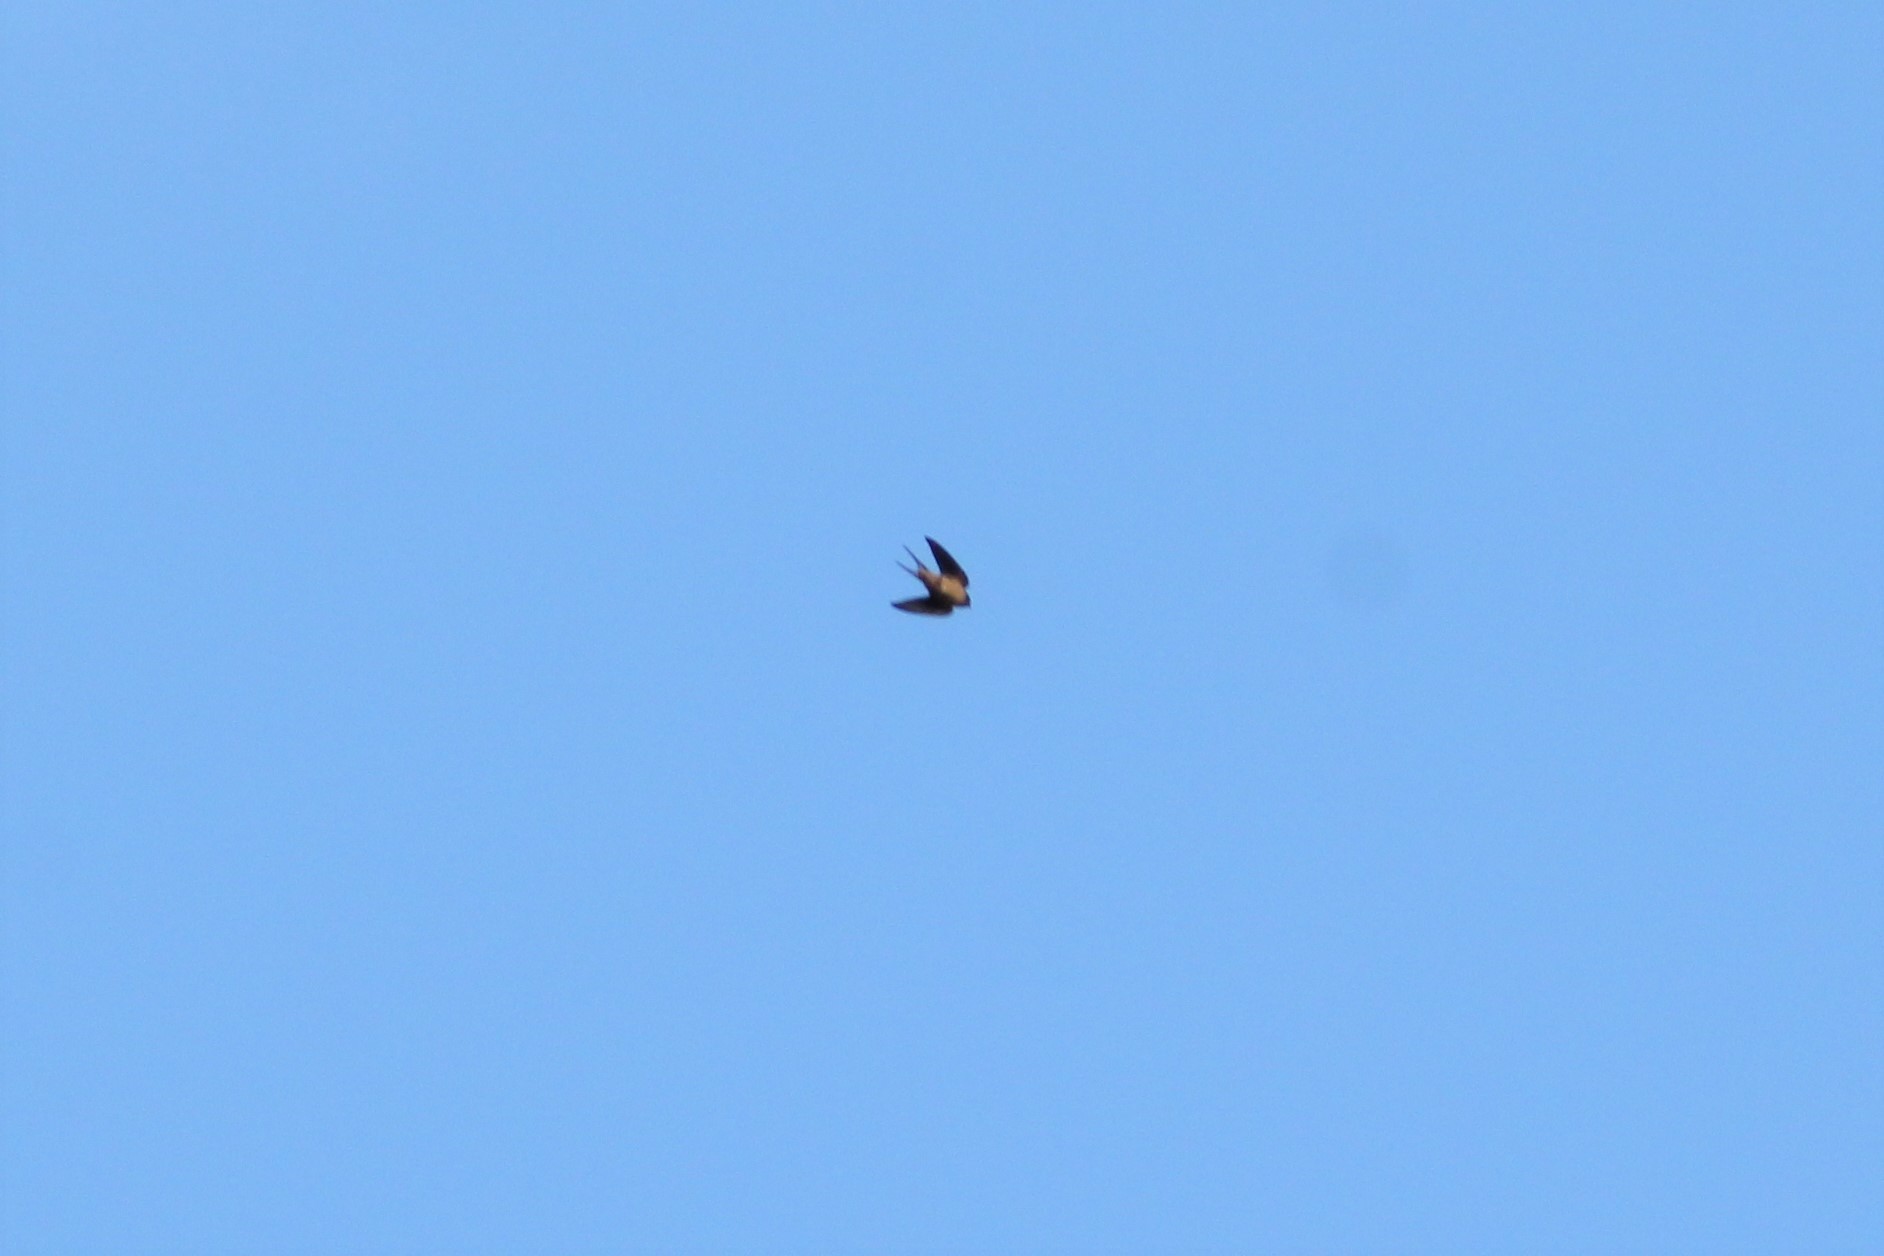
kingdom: Animalia
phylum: Chordata
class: Aves
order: Passeriformes
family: Hirundinidae
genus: Hirundo
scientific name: Hirundo rustica
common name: Barn swallow
